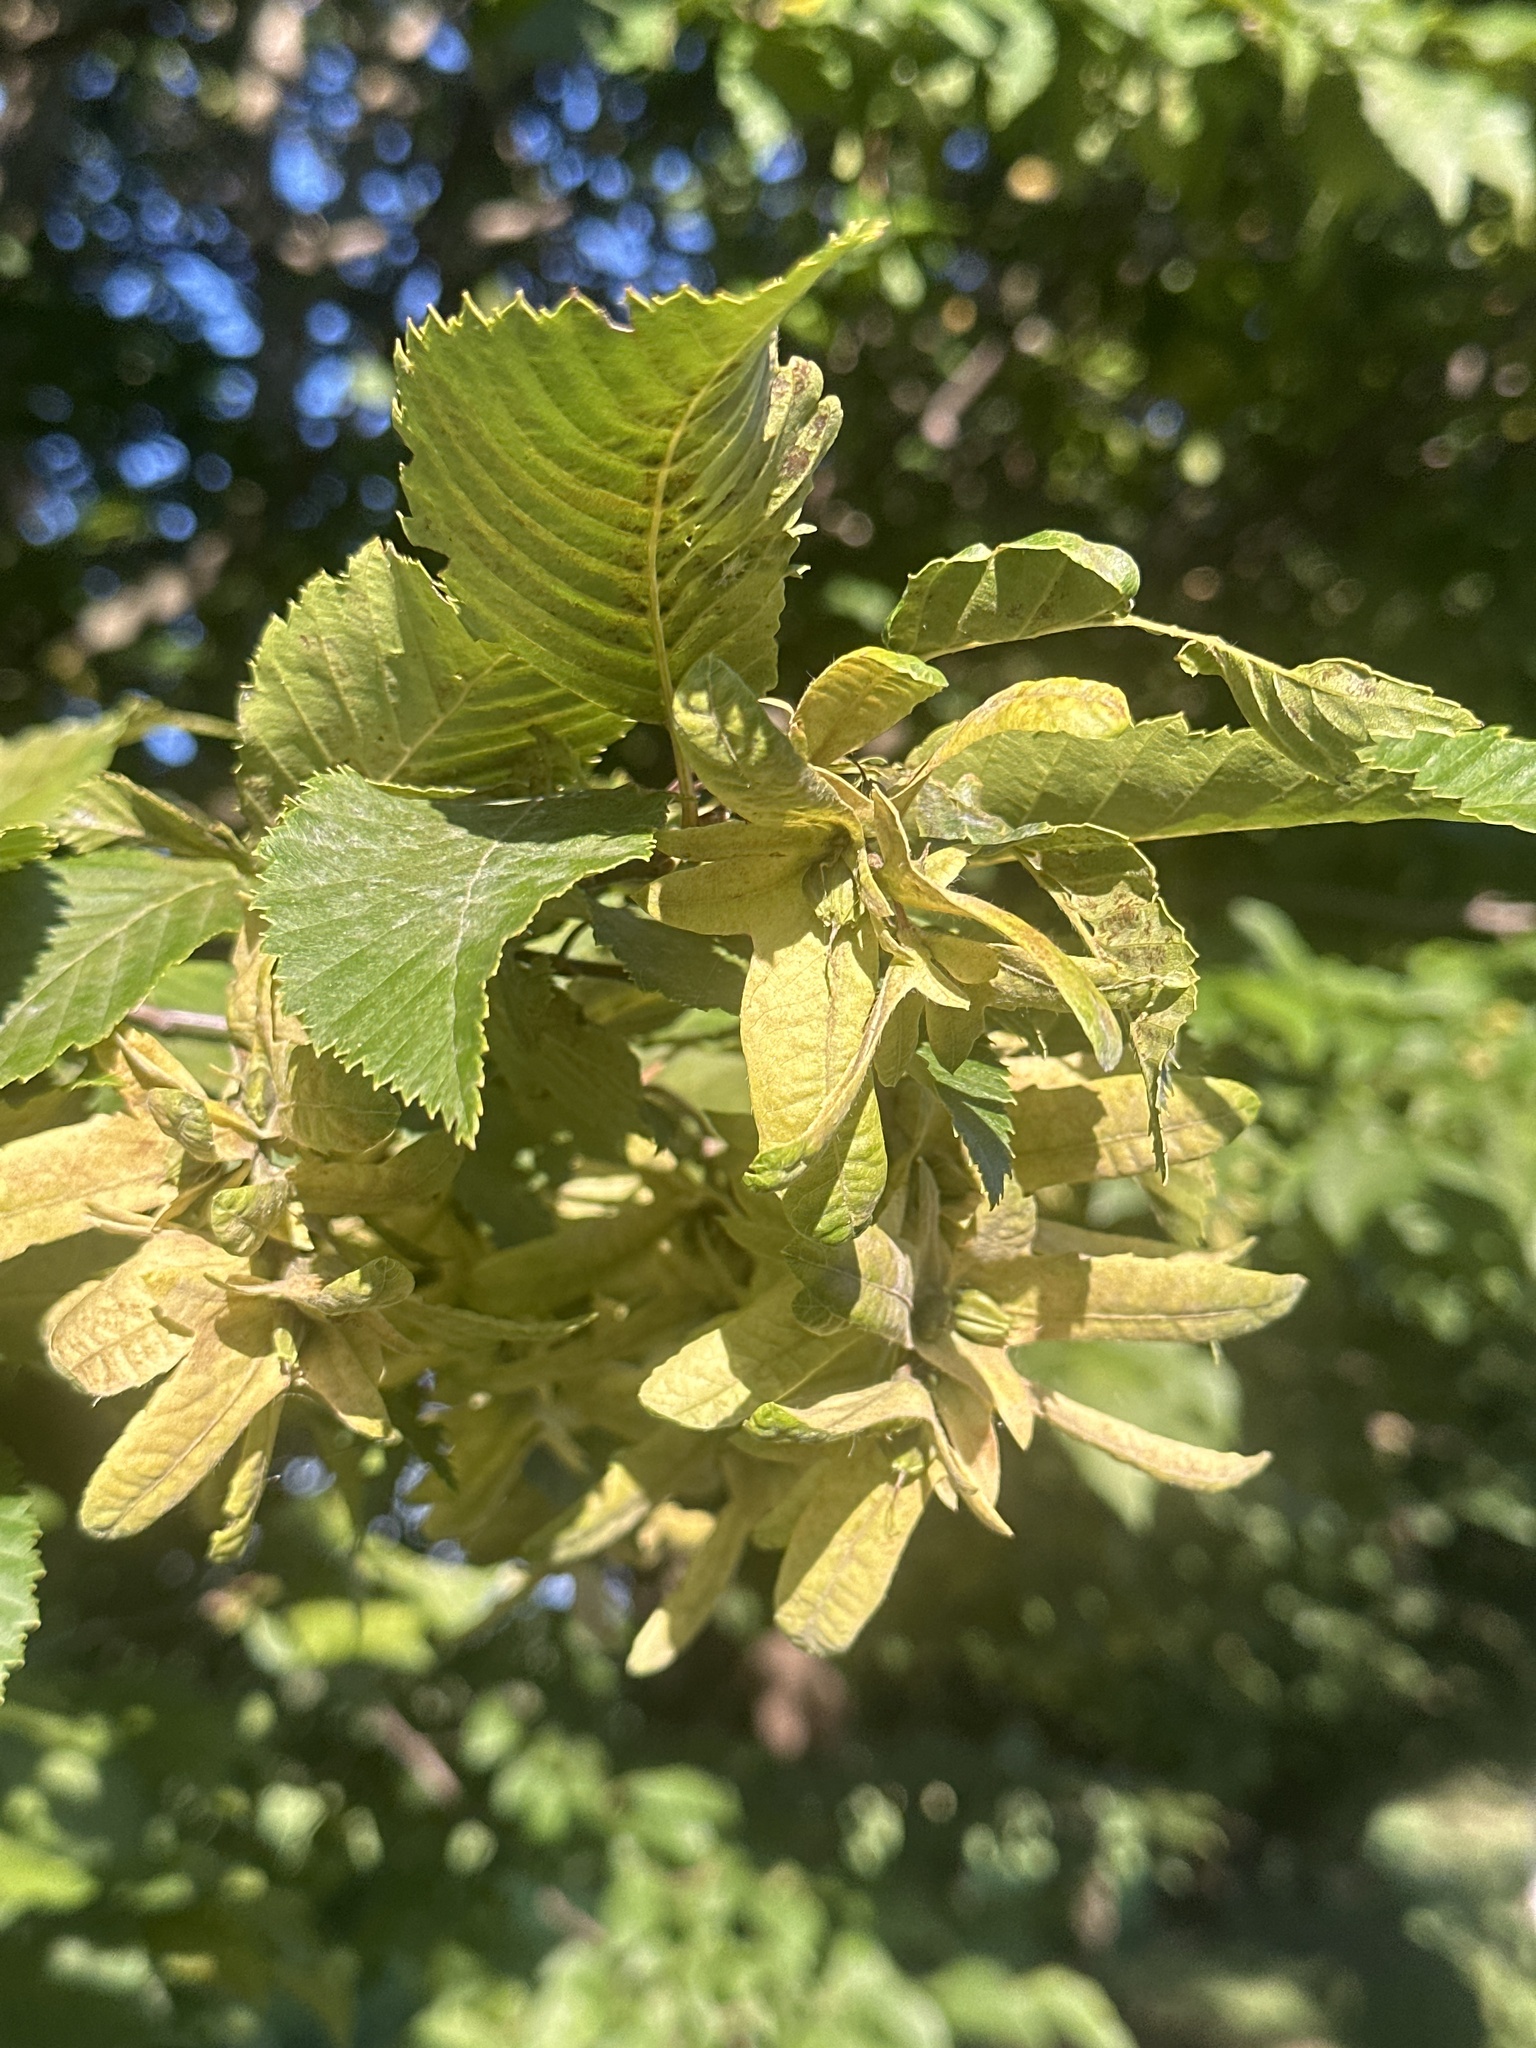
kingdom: Plantae
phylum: Tracheophyta
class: Magnoliopsida
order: Fagales
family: Betulaceae
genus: Carpinus
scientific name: Carpinus betulus
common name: Hornbeam
